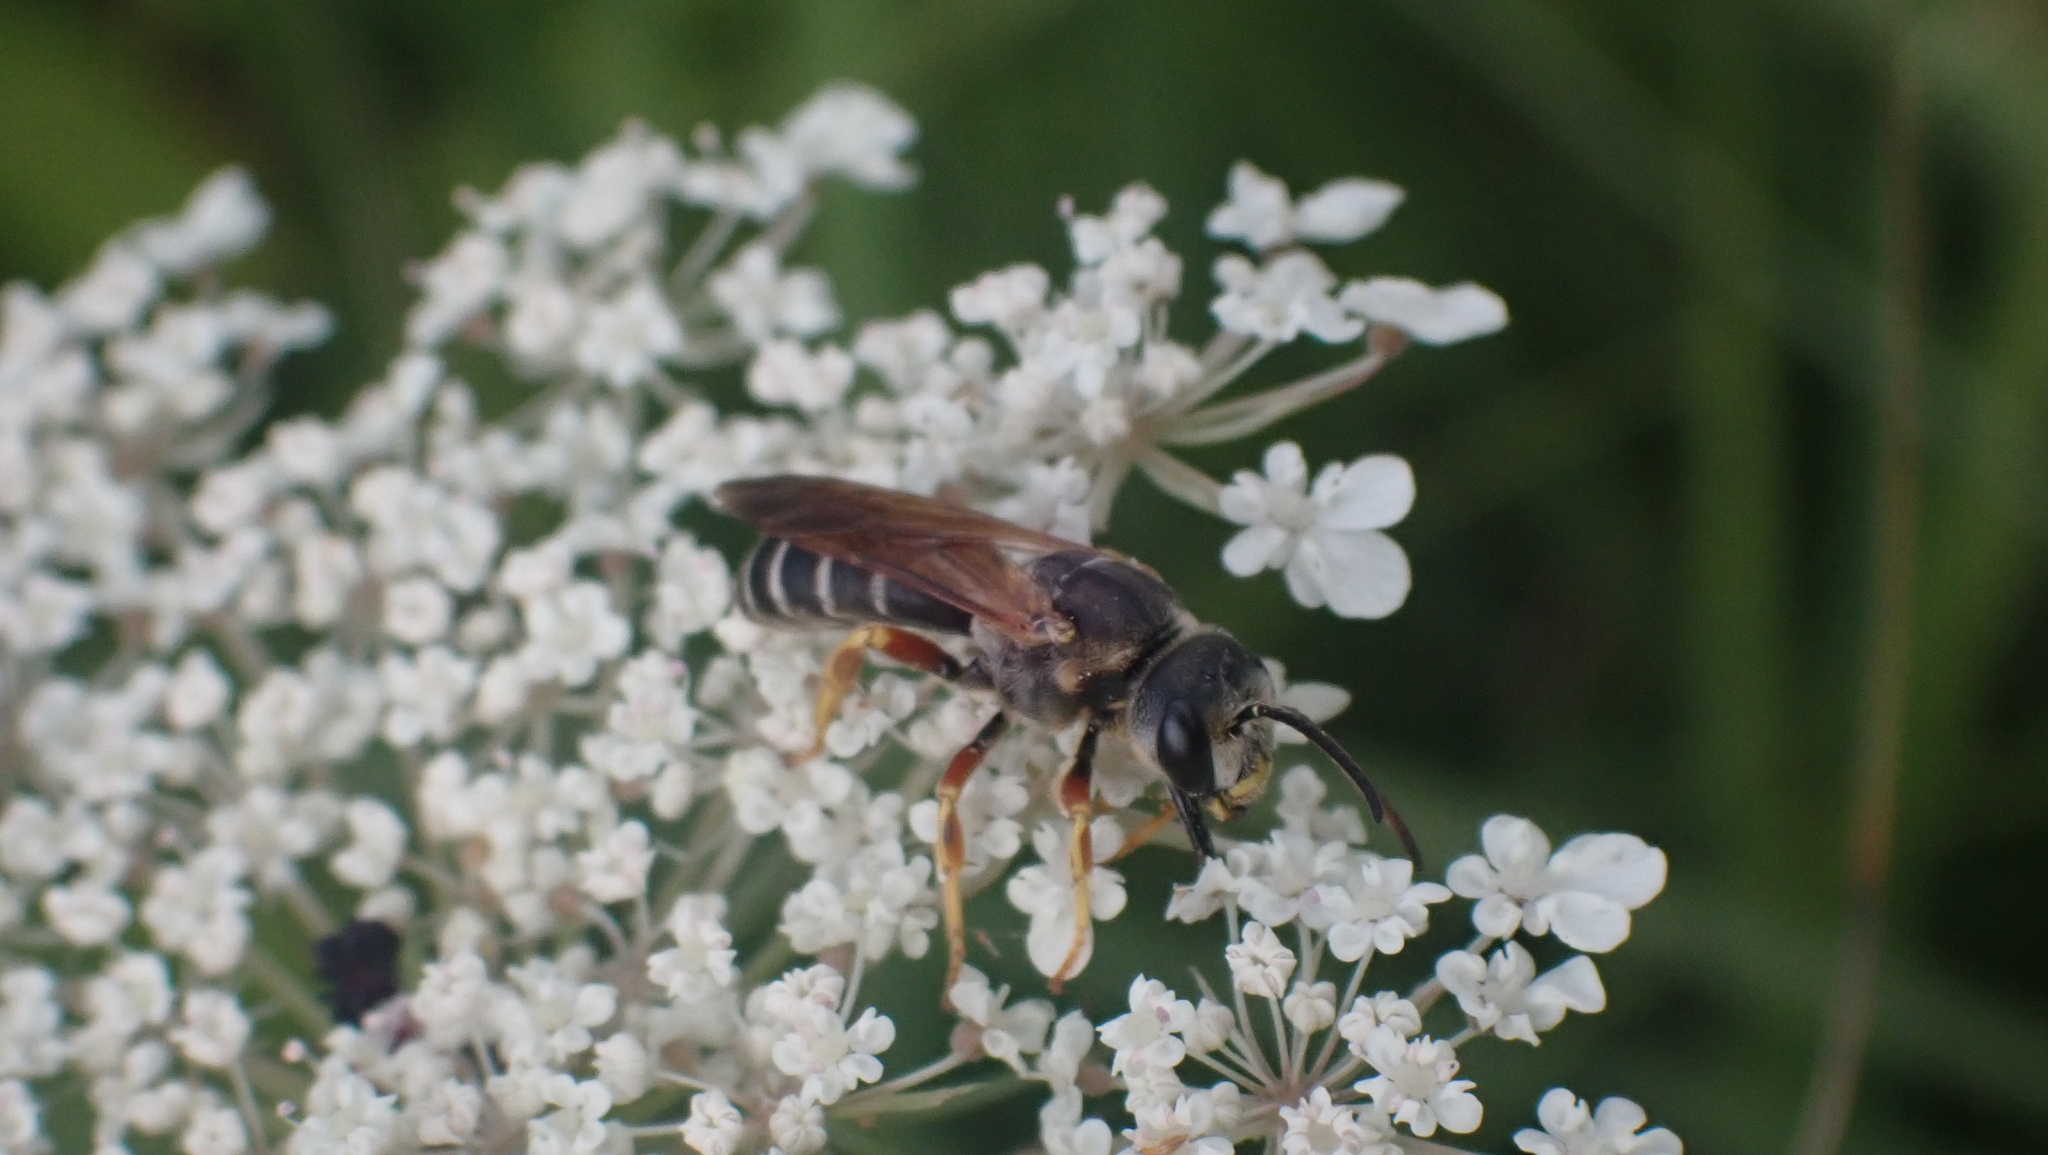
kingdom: Animalia
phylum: Arthropoda
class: Insecta
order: Hymenoptera
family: Halictidae
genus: Halictus
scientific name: Halictus parallelus
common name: Parallel-striped sweat bee
